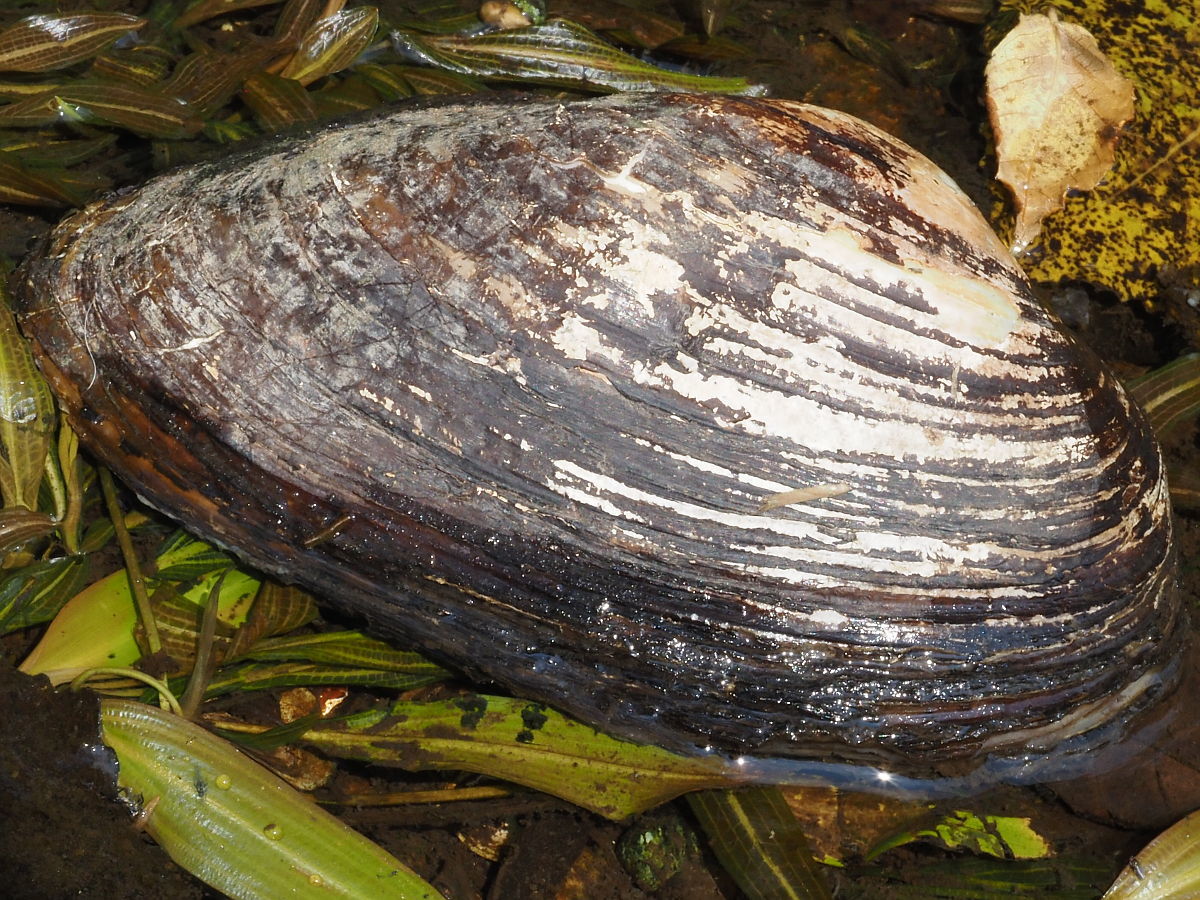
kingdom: Animalia
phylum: Mollusca
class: Bivalvia
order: Unionida
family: Unionidae
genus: Pyganodon
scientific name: Pyganodon grandis
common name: Giant floater
